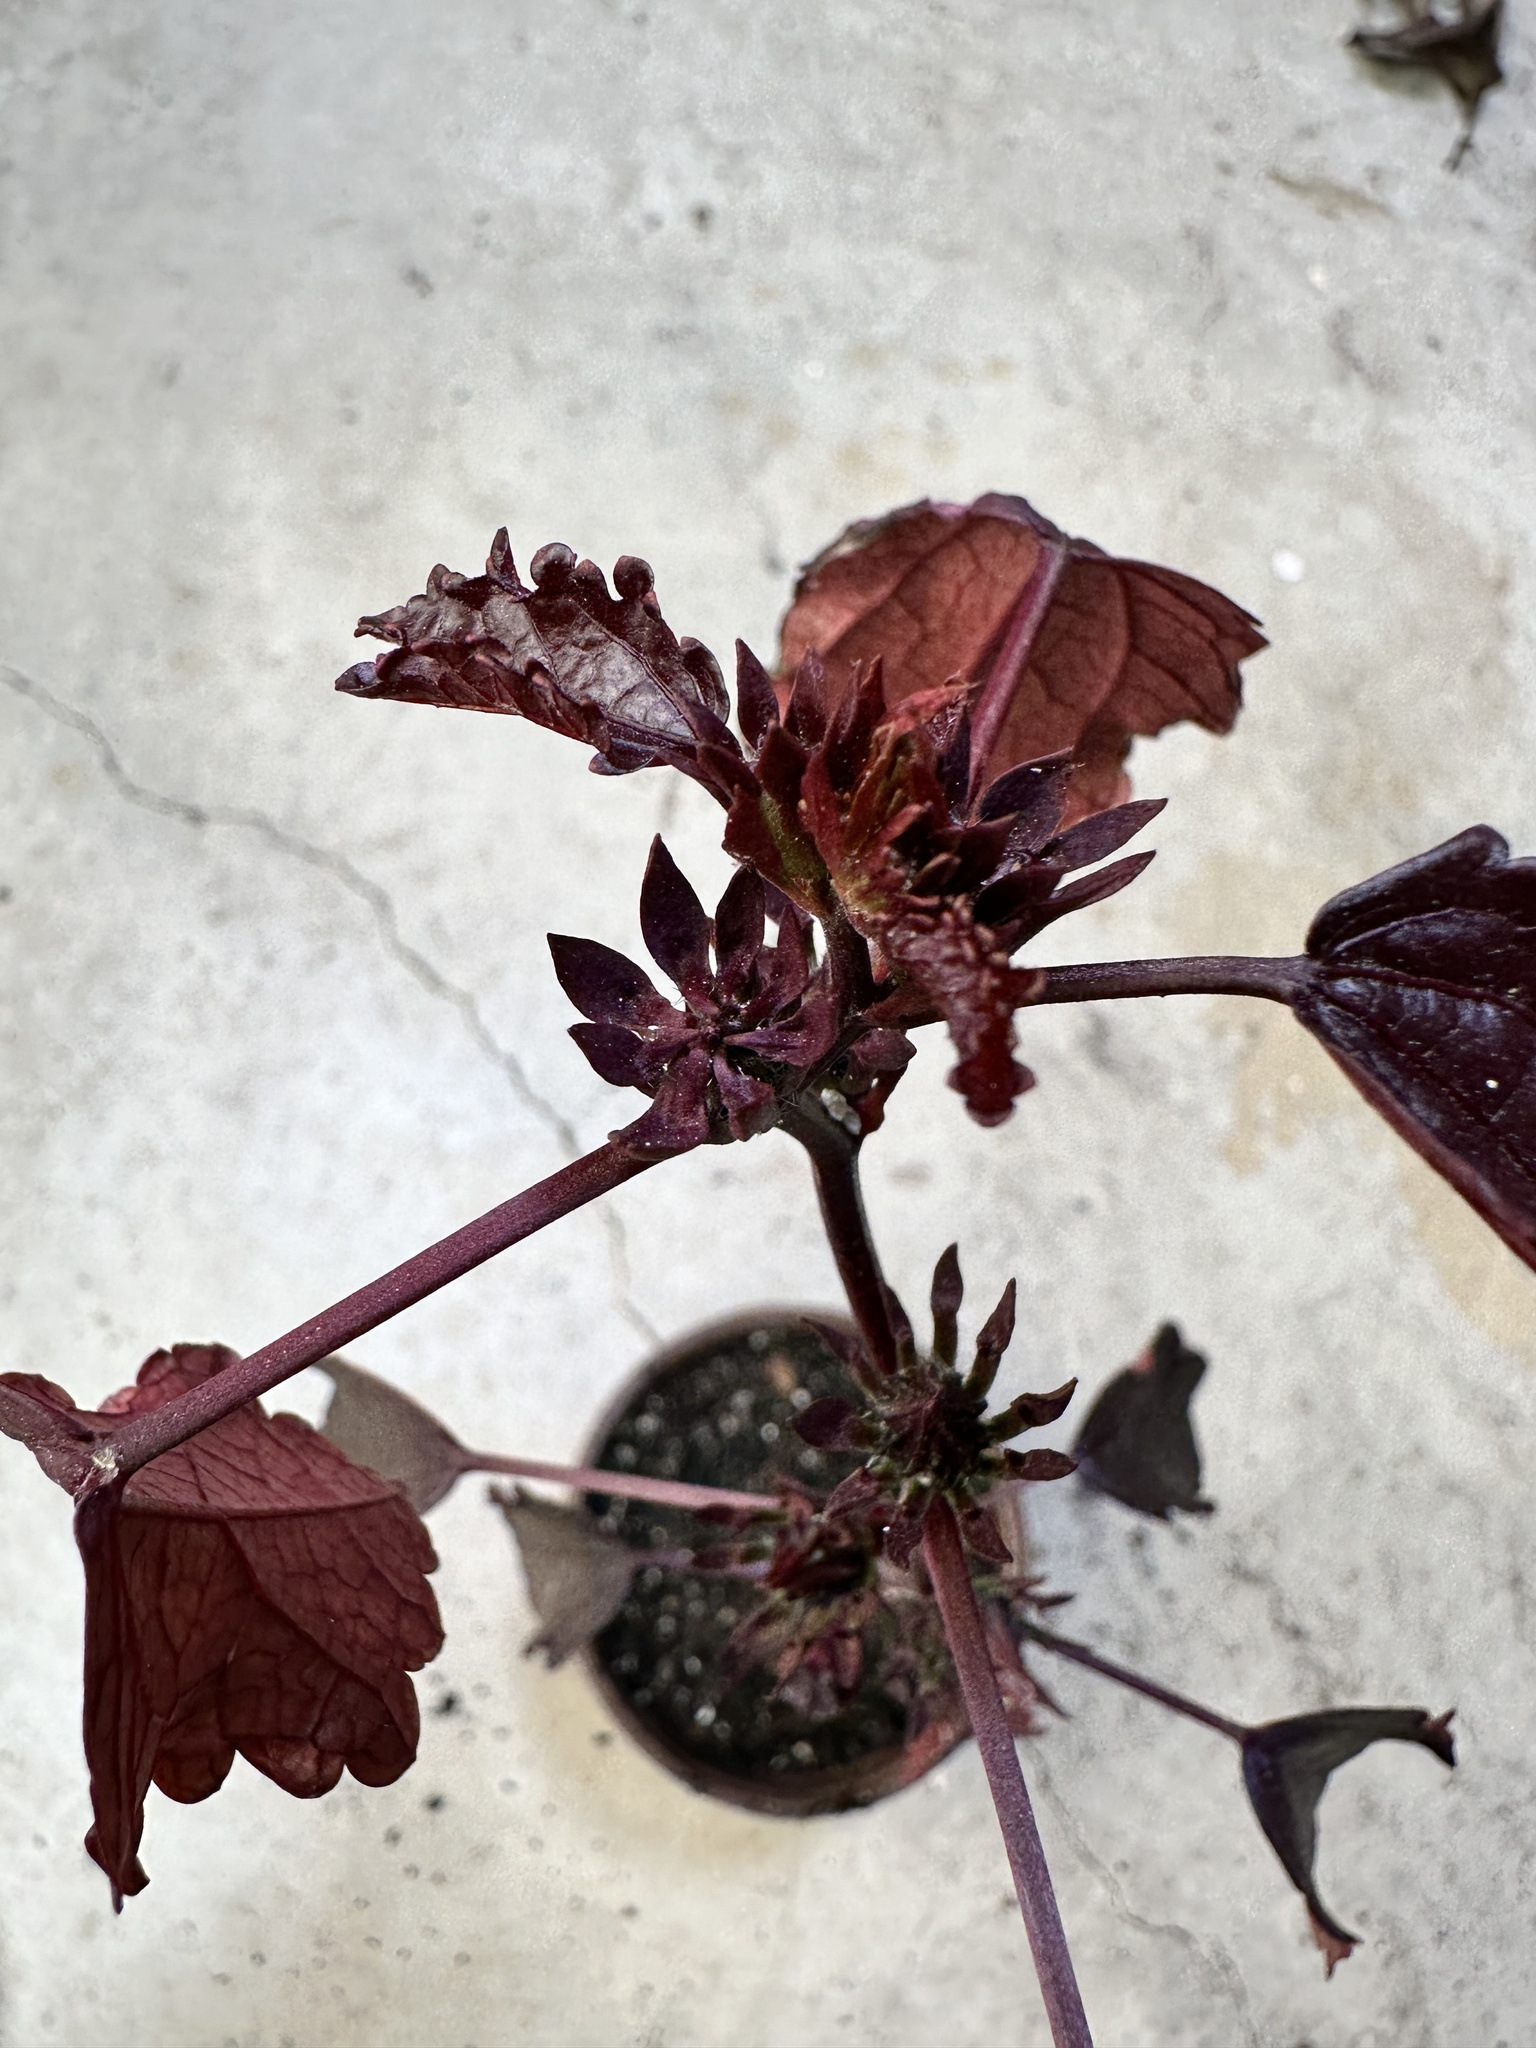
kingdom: Plantae
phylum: Tracheophyta
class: Magnoliopsida
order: Malvales
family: Malvaceae
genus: Hibiscus
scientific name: Hibiscus sabdariffa
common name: Roselle
